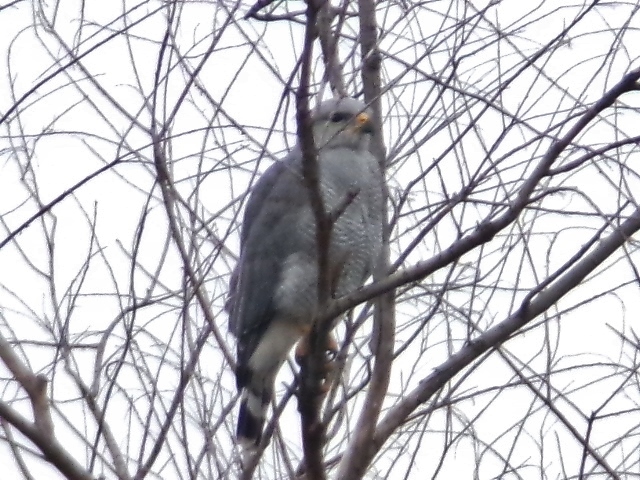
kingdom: Animalia
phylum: Chordata
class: Aves
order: Accipitriformes
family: Accipitridae
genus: Buteo
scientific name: Buteo nitidus
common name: Grey-lined hawk
